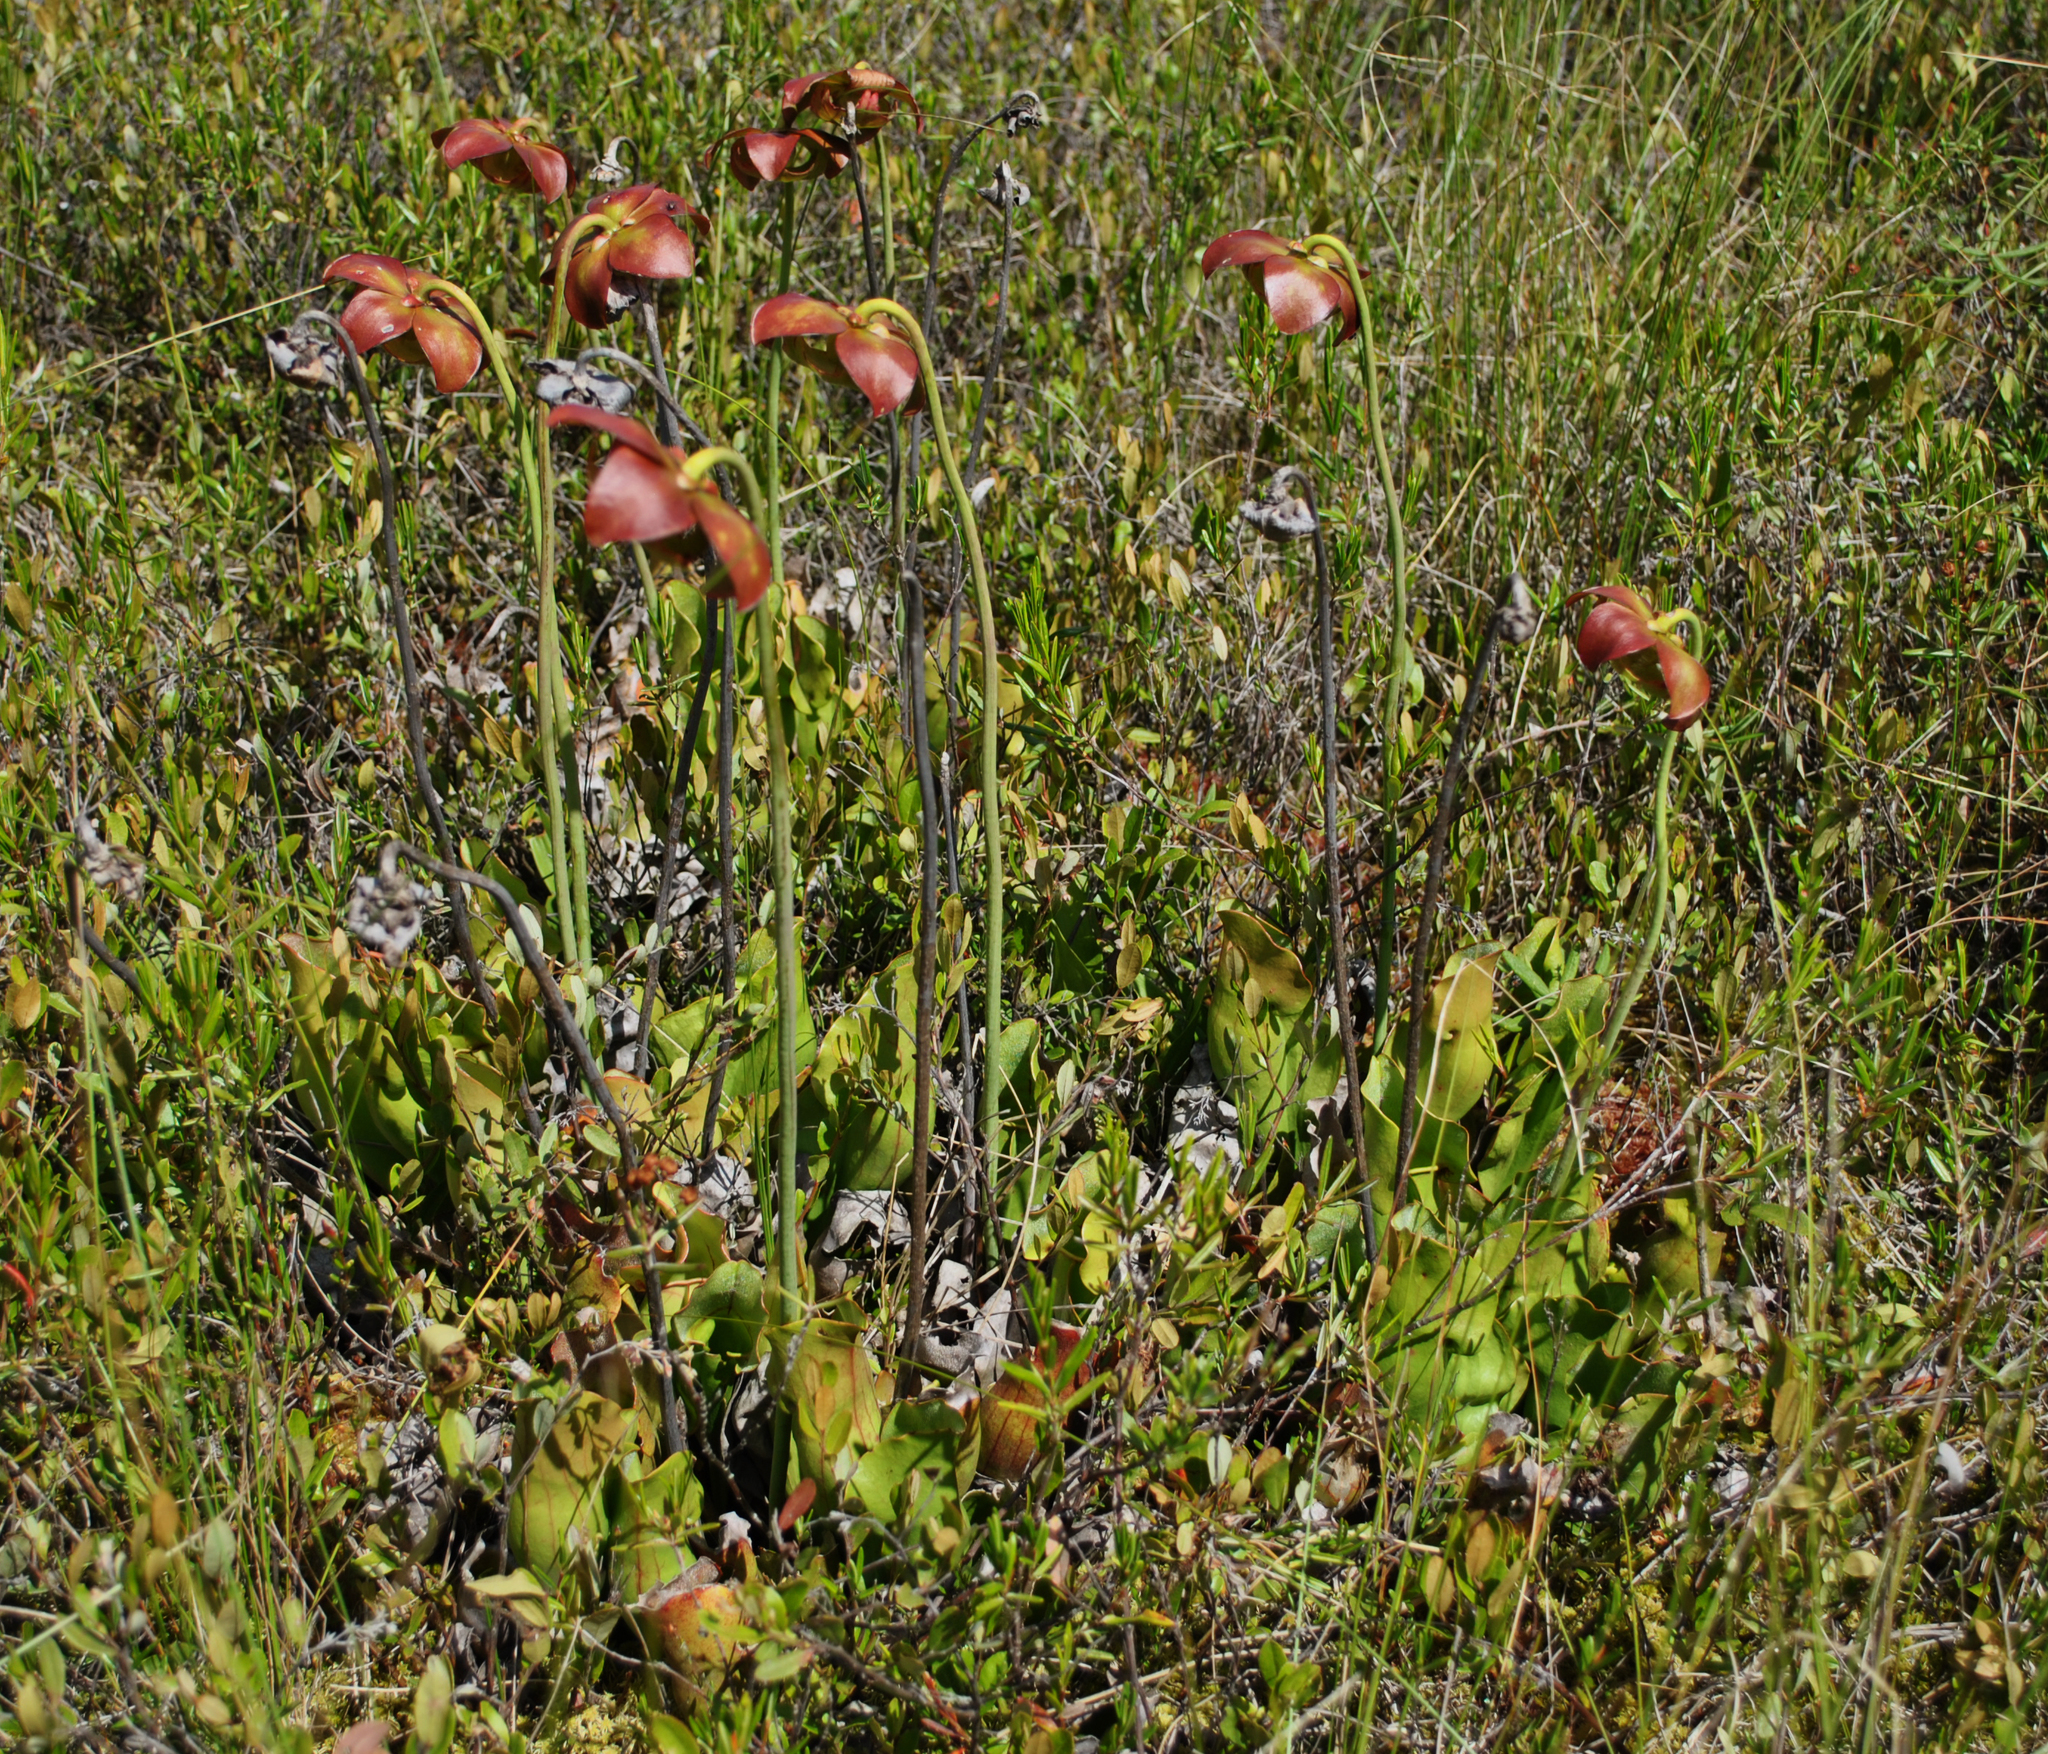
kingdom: Plantae
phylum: Tracheophyta
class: Magnoliopsida
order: Ericales
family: Sarraceniaceae
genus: Sarracenia
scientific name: Sarracenia purpurea
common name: Pitcherplant
